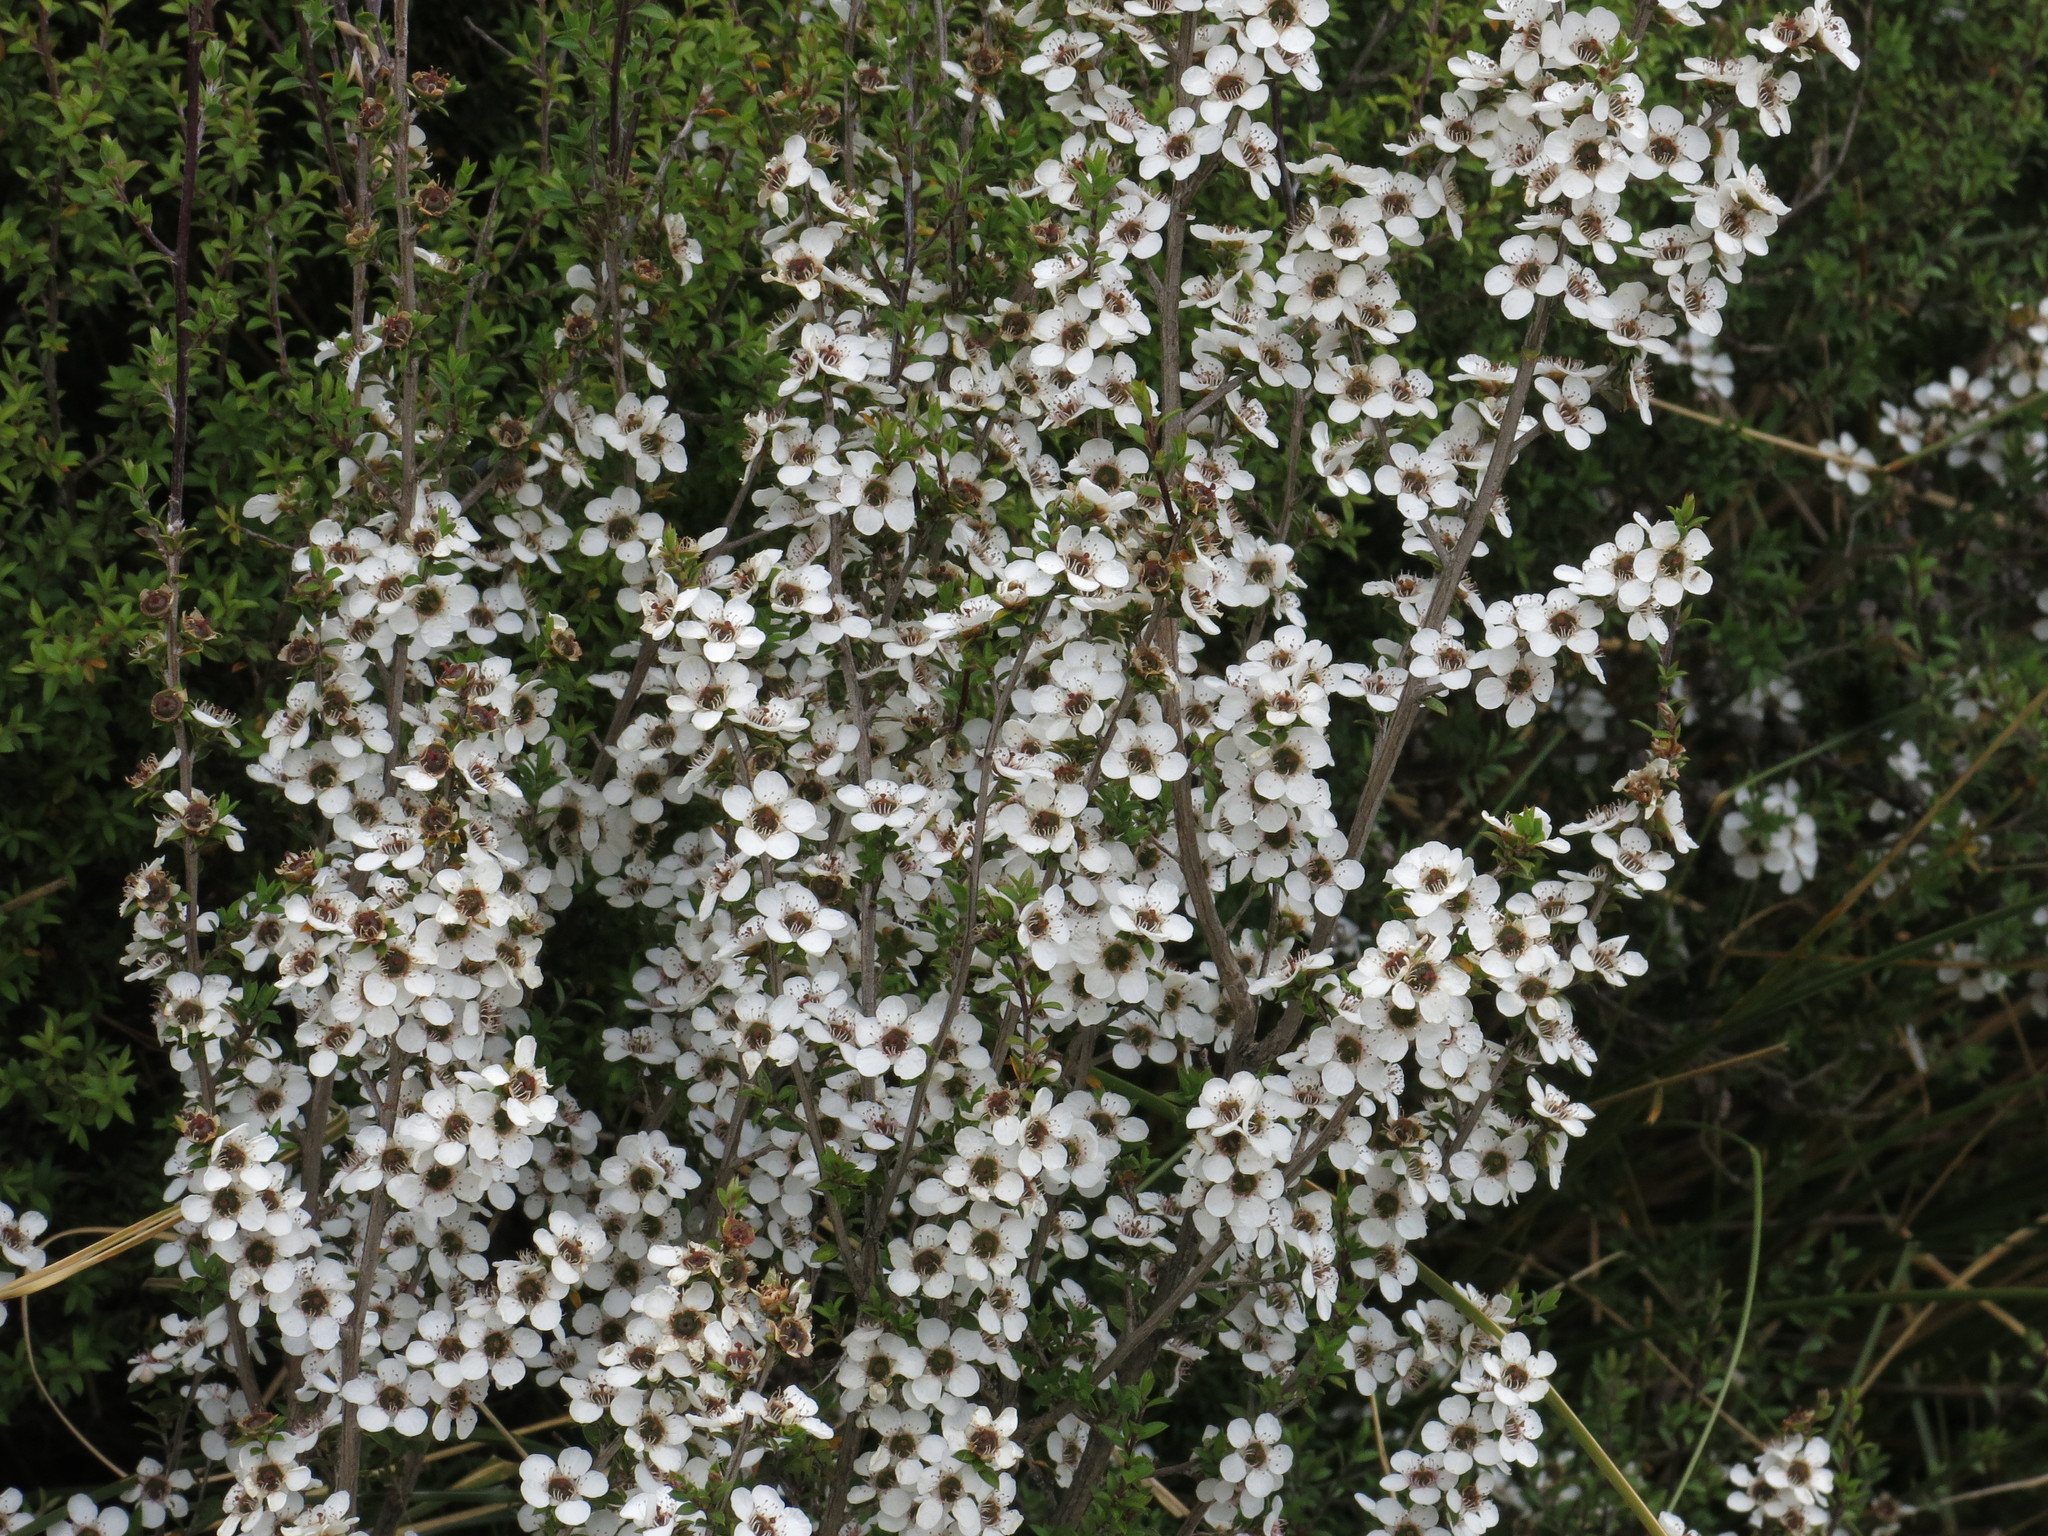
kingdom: Plantae
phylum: Tracheophyta
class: Magnoliopsida
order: Myrtales
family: Myrtaceae
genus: Leptospermum
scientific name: Leptospermum scoparium
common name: Broom tea-tree
